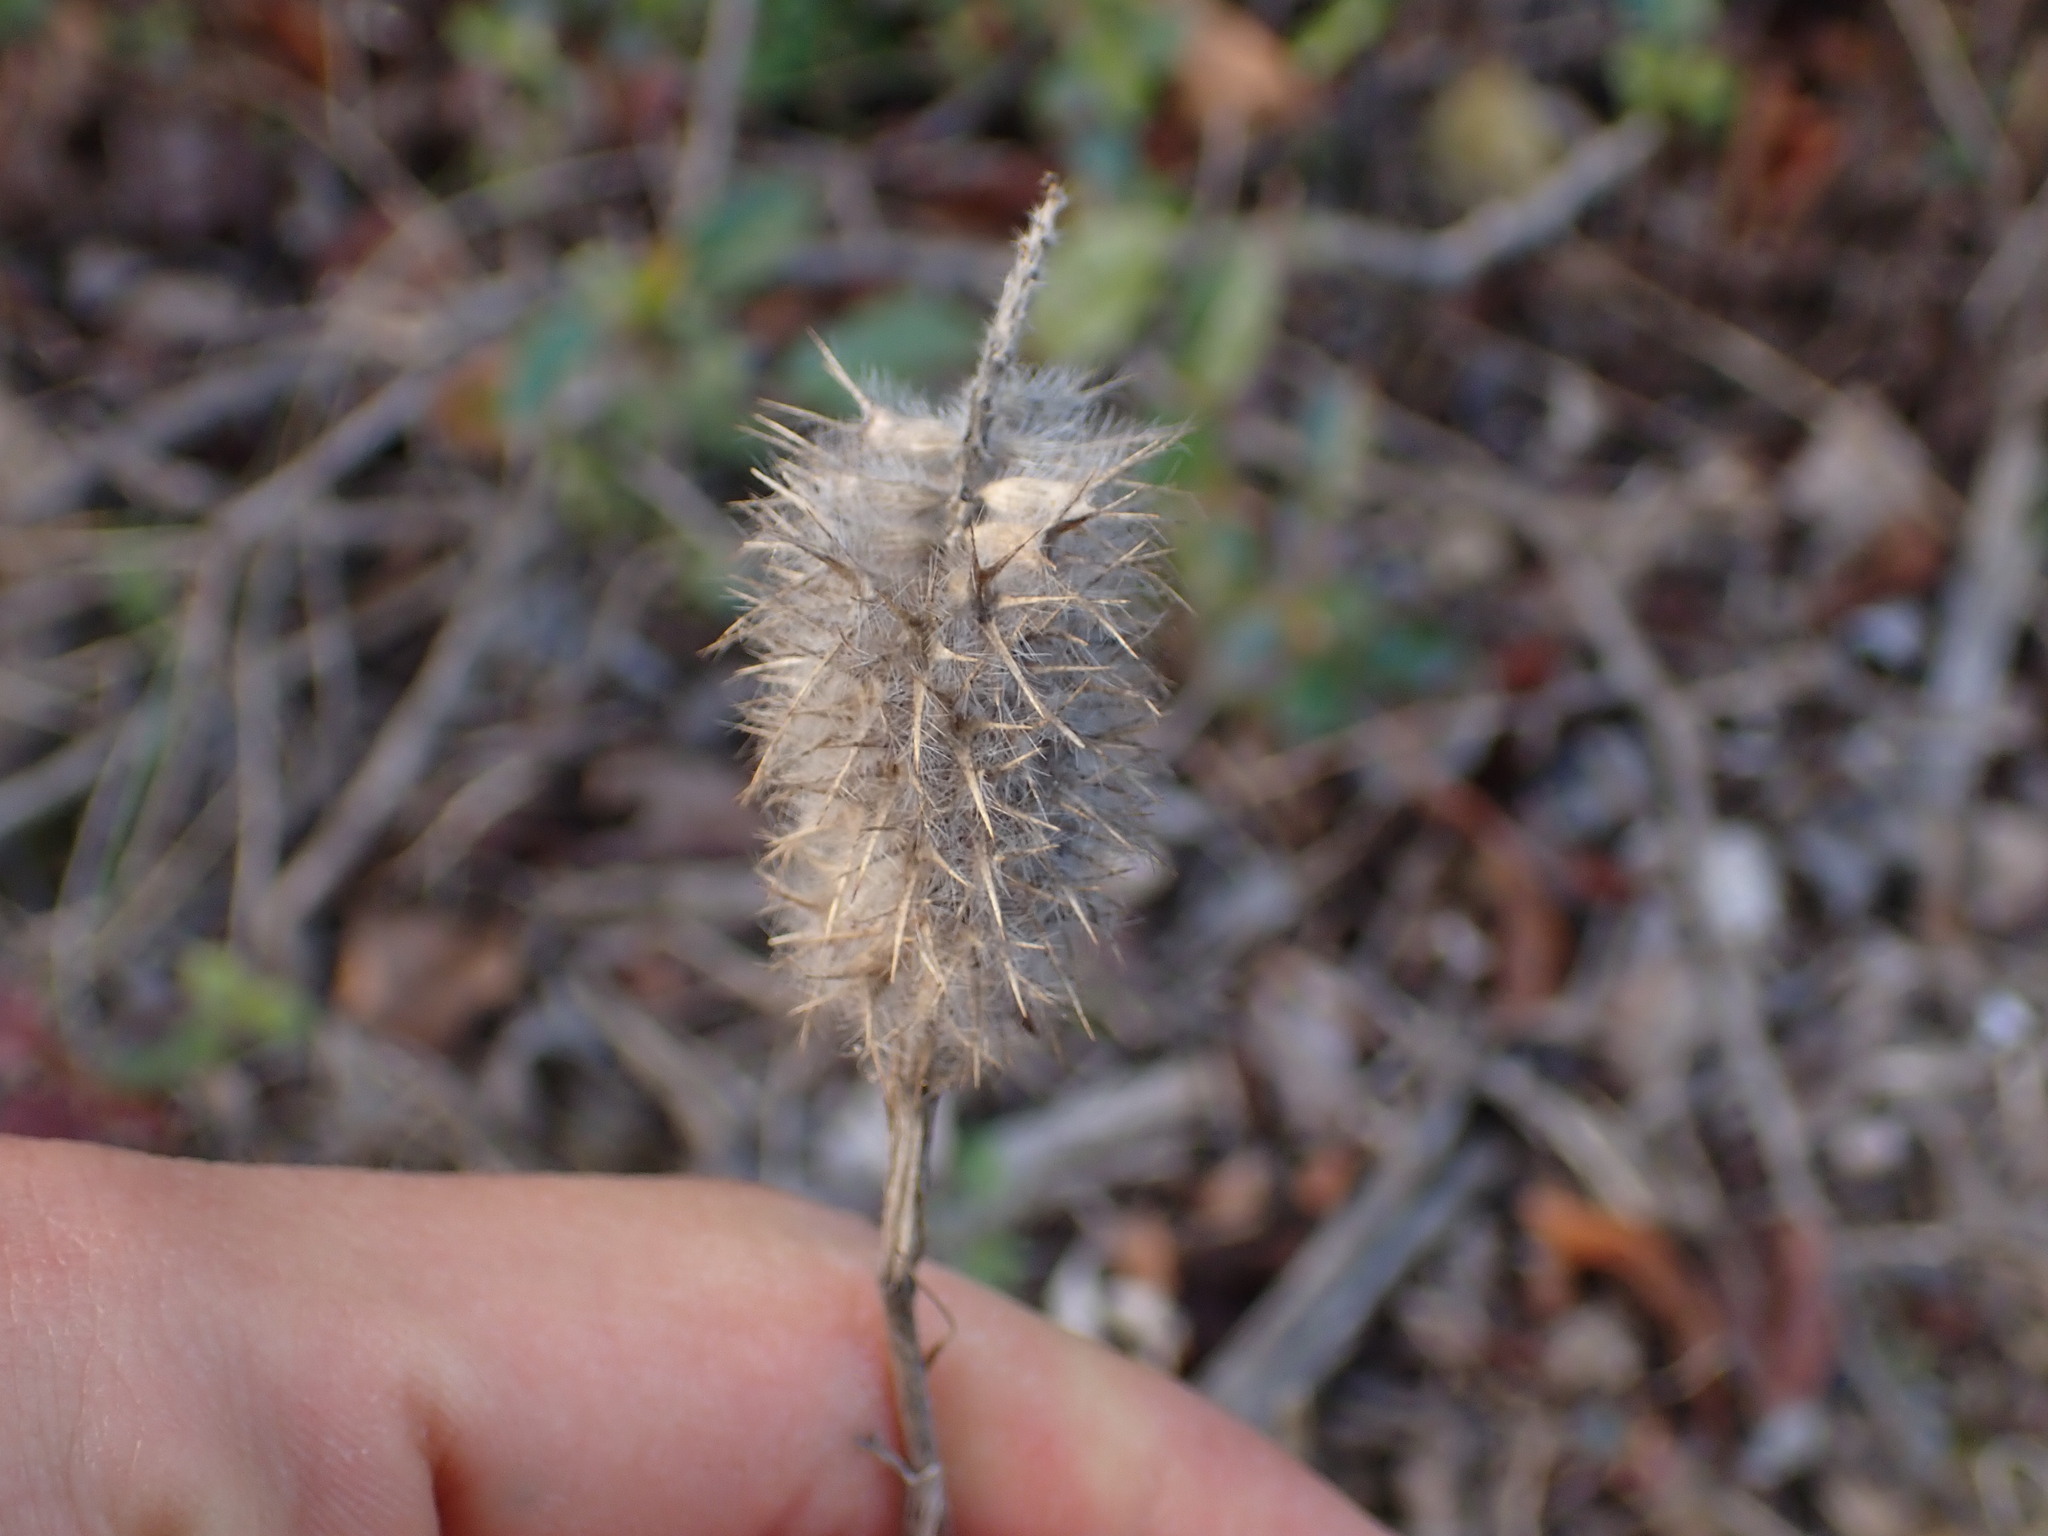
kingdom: Plantae
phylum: Tracheophyta
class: Magnoliopsida
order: Fabales
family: Fabaceae
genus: Trifolium
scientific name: Trifolium angustifolium
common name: Narrow clover
